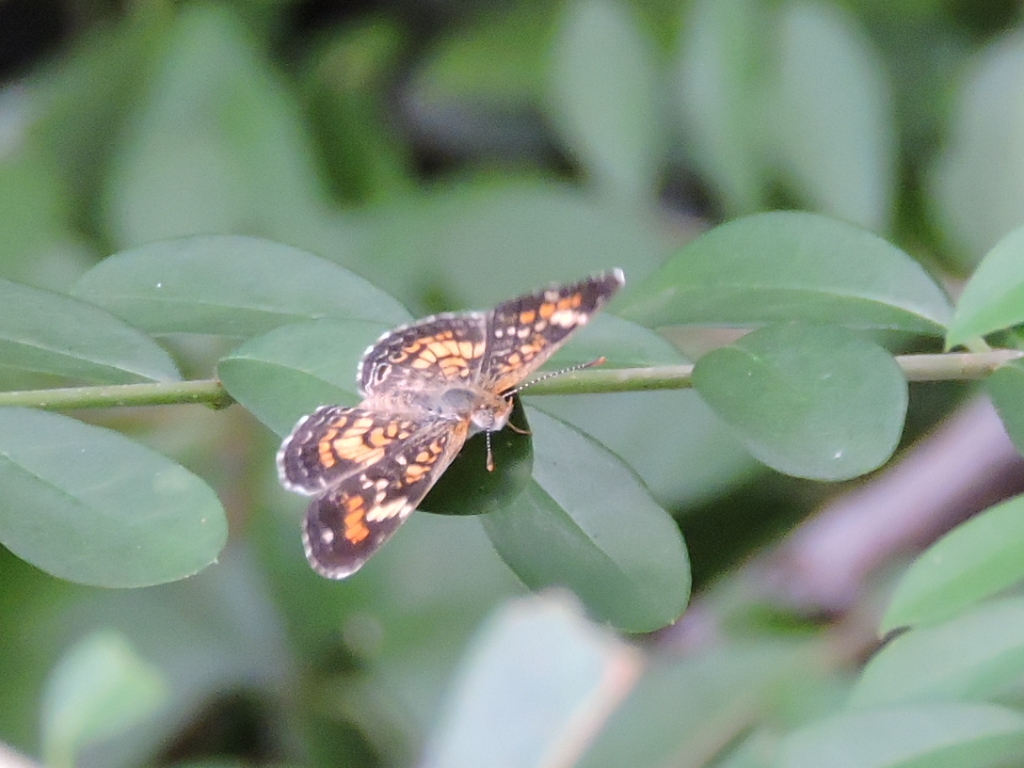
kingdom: Animalia
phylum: Arthropoda
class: Insecta
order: Lepidoptera
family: Nymphalidae
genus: Phyciodes
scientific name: Phyciodes phaon
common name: Phaon crescent
